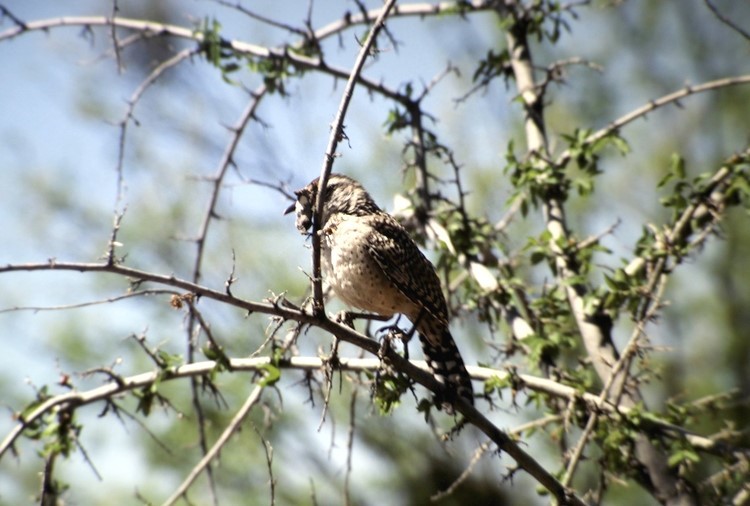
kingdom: Animalia
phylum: Chordata
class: Aves
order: Passeriformes
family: Troglodytidae
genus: Campylorhynchus
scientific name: Campylorhynchus brunneicapillus
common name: Cactus wren
